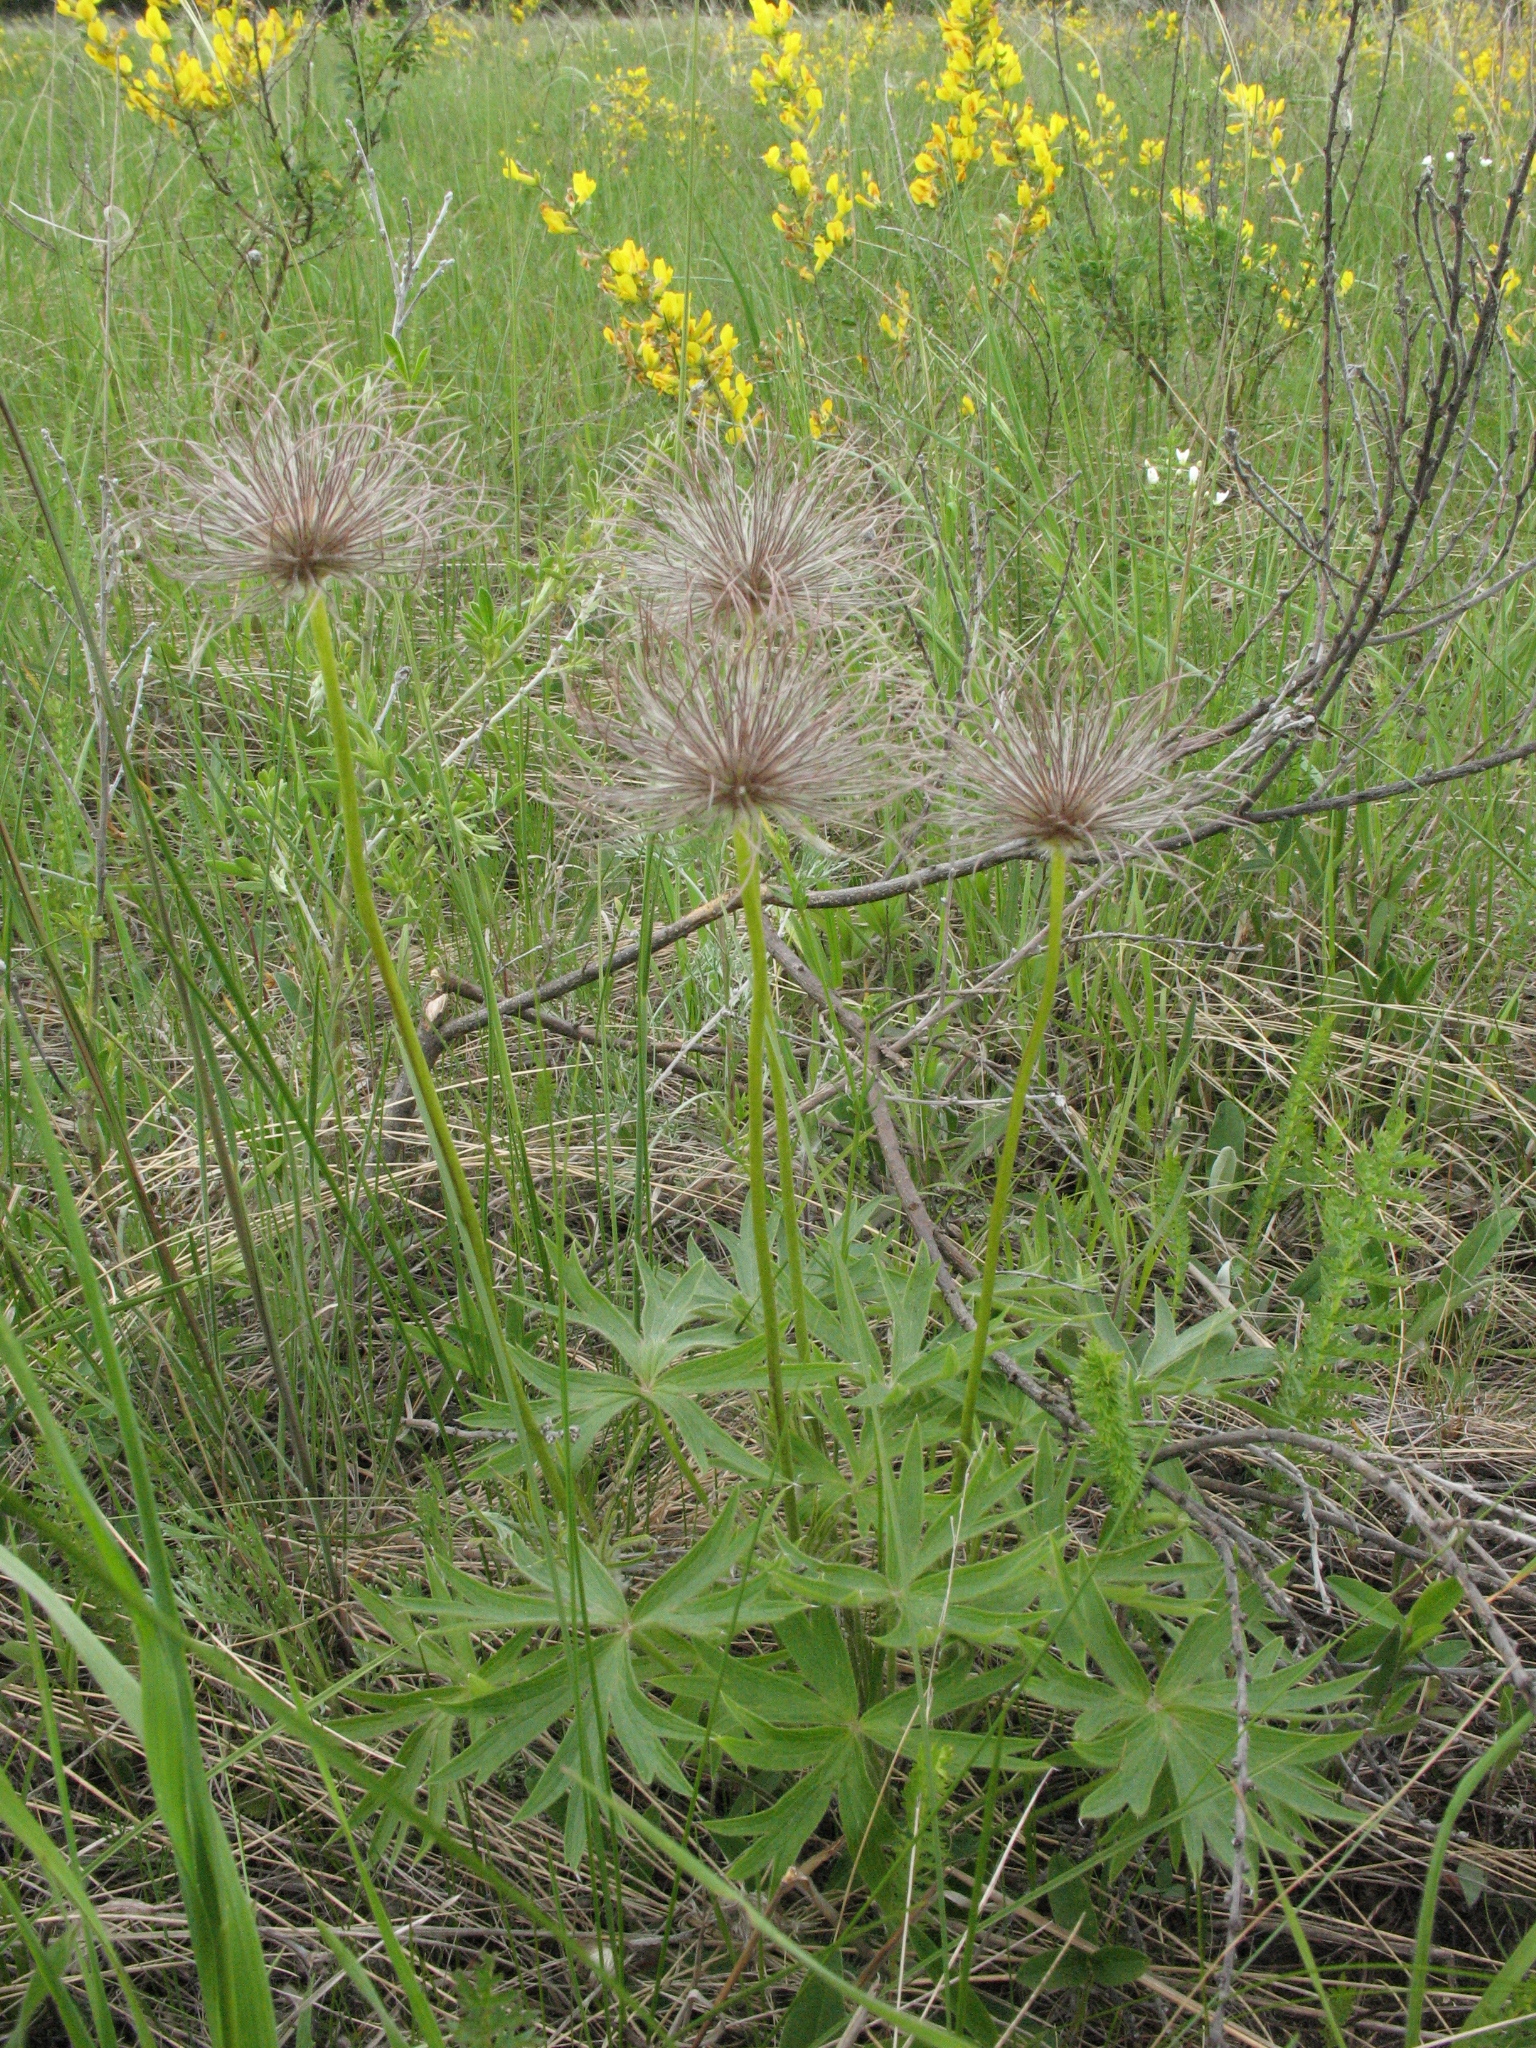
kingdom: Plantae
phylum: Tracheophyta
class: Magnoliopsida
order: Ranunculales
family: Ranunculaceae
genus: Pulsatilla
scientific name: Pulsatilla patens
